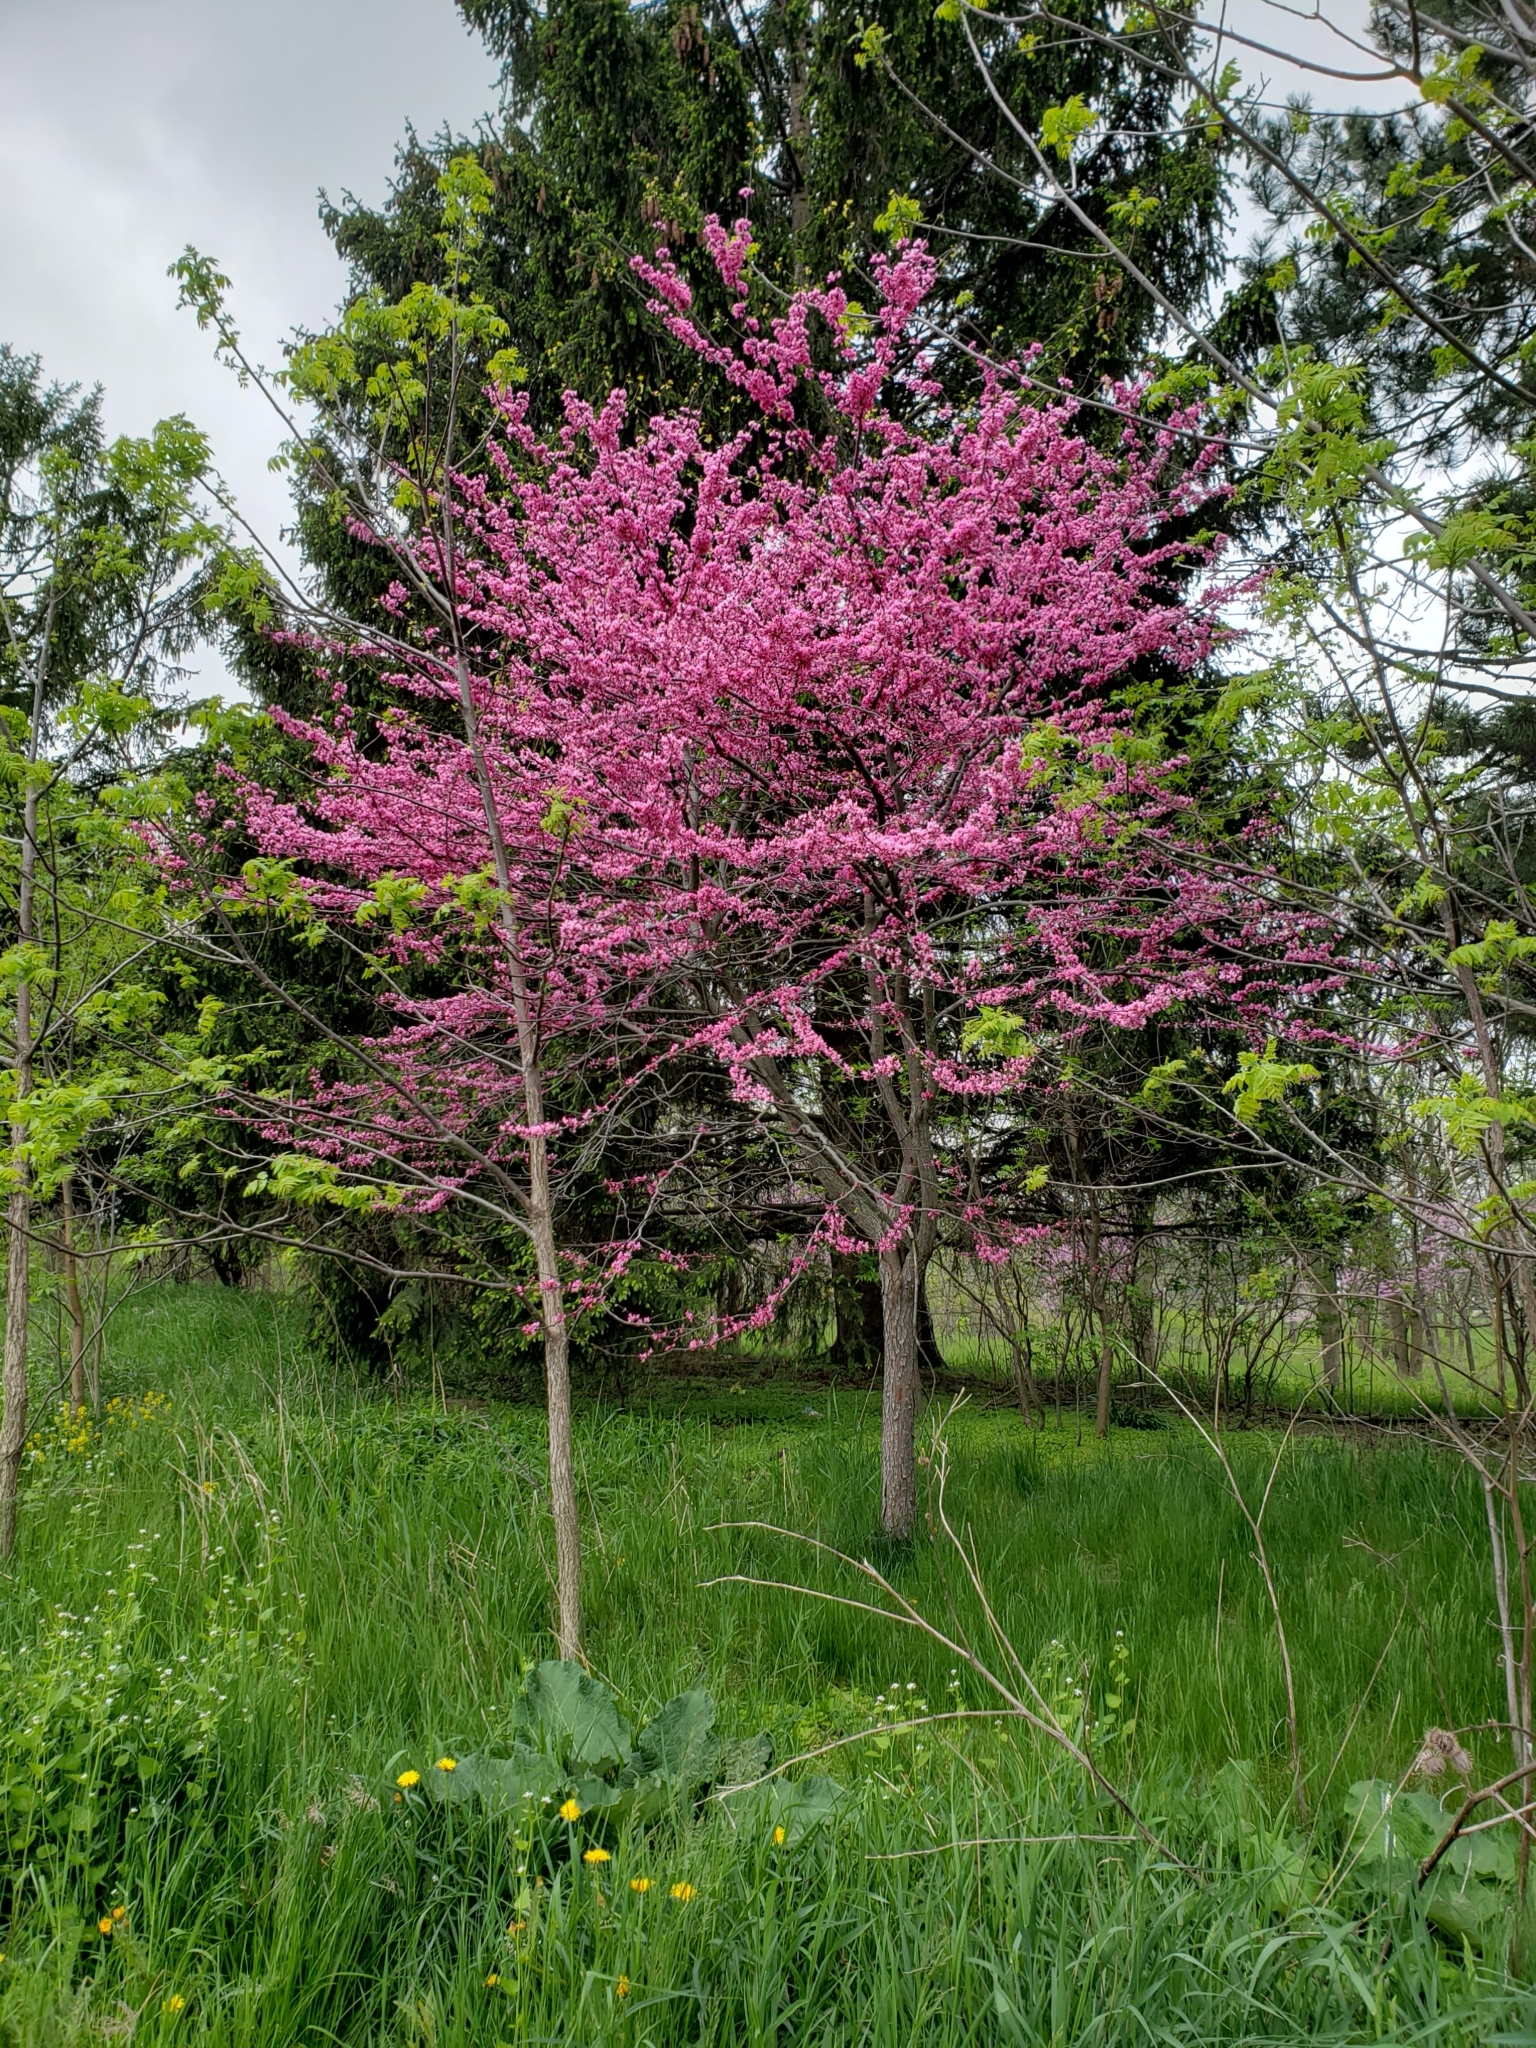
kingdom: Plantae
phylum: Tracheophyta
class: Magnoliopsida
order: Fabales
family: Fabaceae
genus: Cercis
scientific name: Cercis canadensis
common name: Eastern redbud
